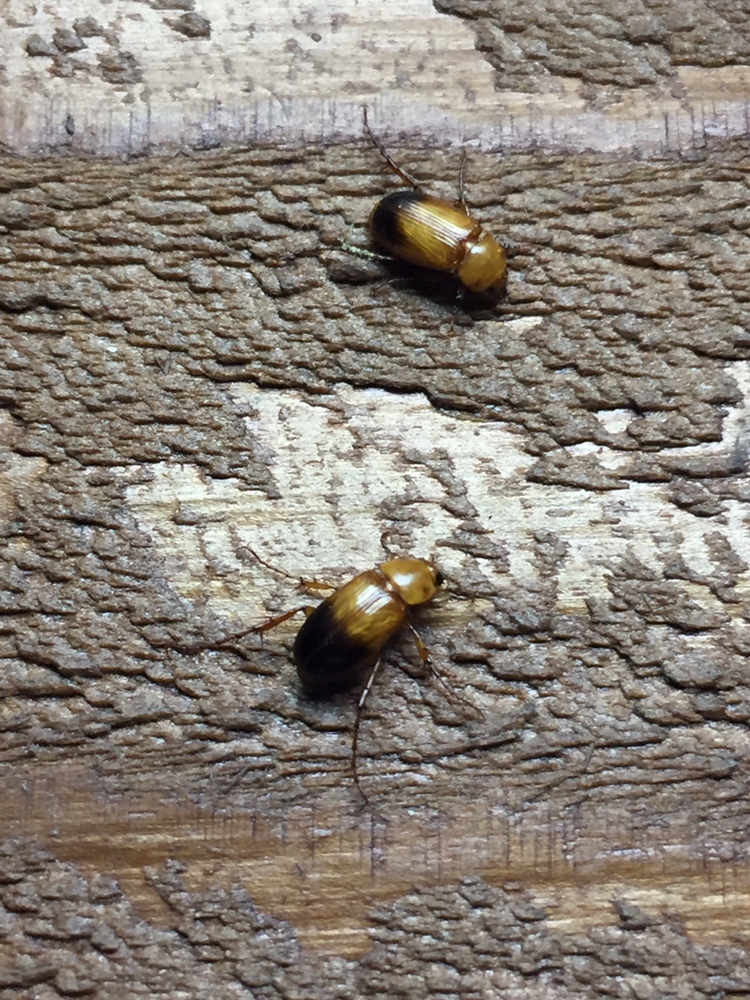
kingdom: Animalia
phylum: Arthropoda
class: Insecta
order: Coleoptera
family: Scarabaeidae
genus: Phyllotocus
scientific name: Phyllotocus macleayi
